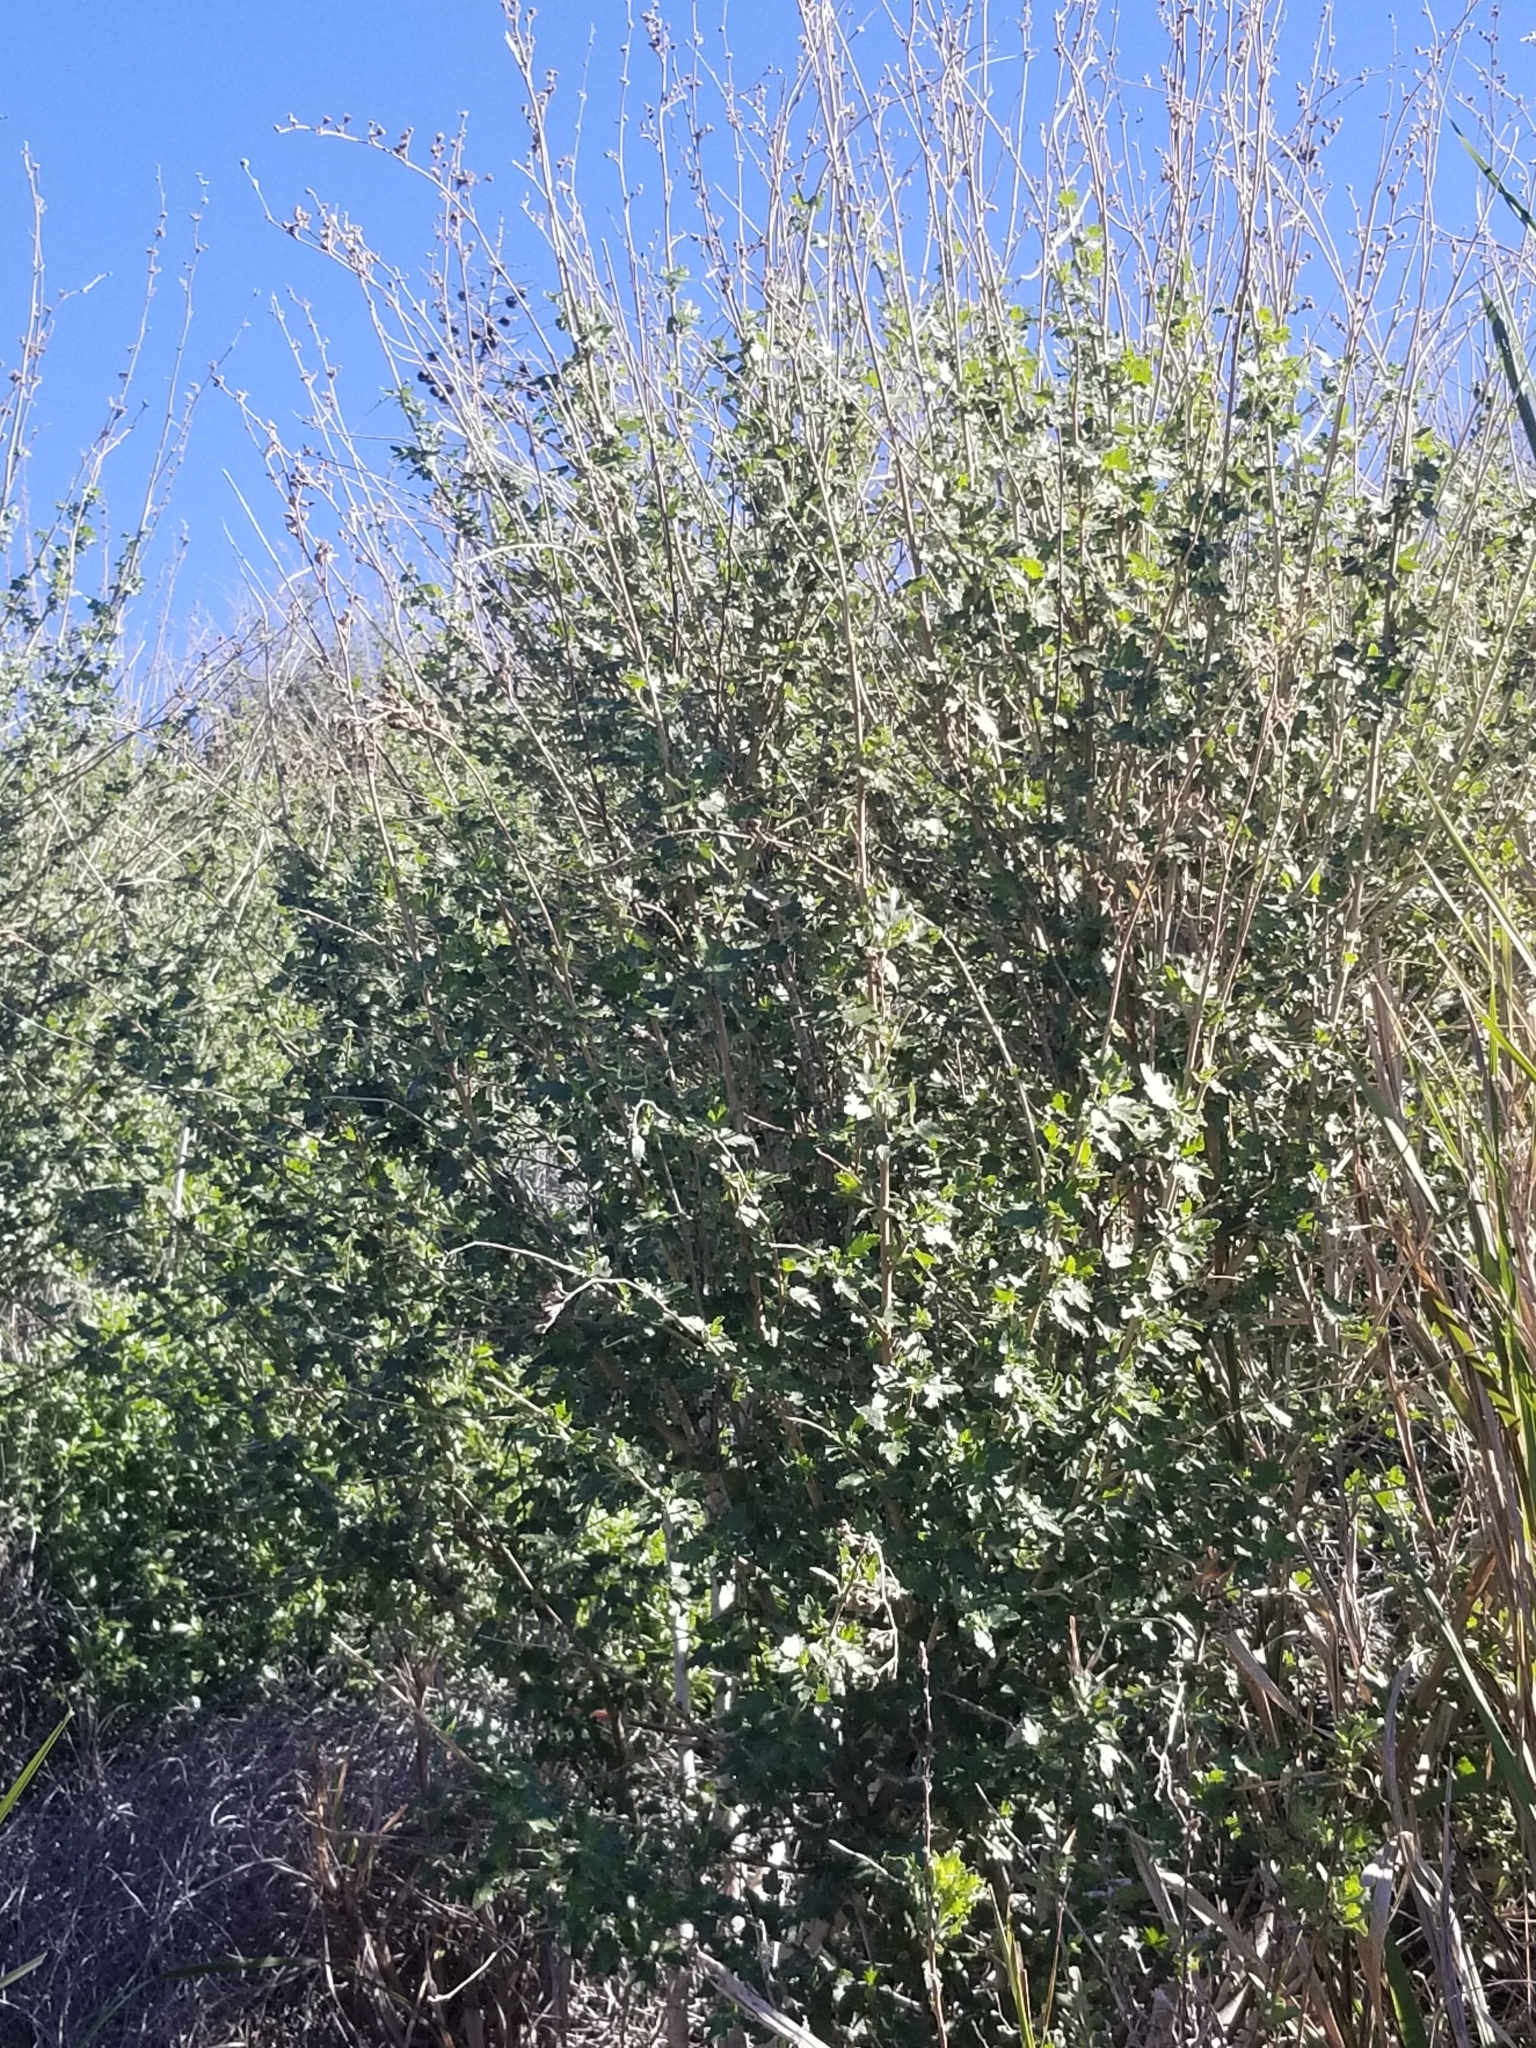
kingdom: Plantae
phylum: Tracheophyta
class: Magnoliopsida
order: Malvales
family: Malvaceae
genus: Malacothamnus
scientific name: Malacothamnus fasciculatus
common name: Sant cruz island bush-mallow
